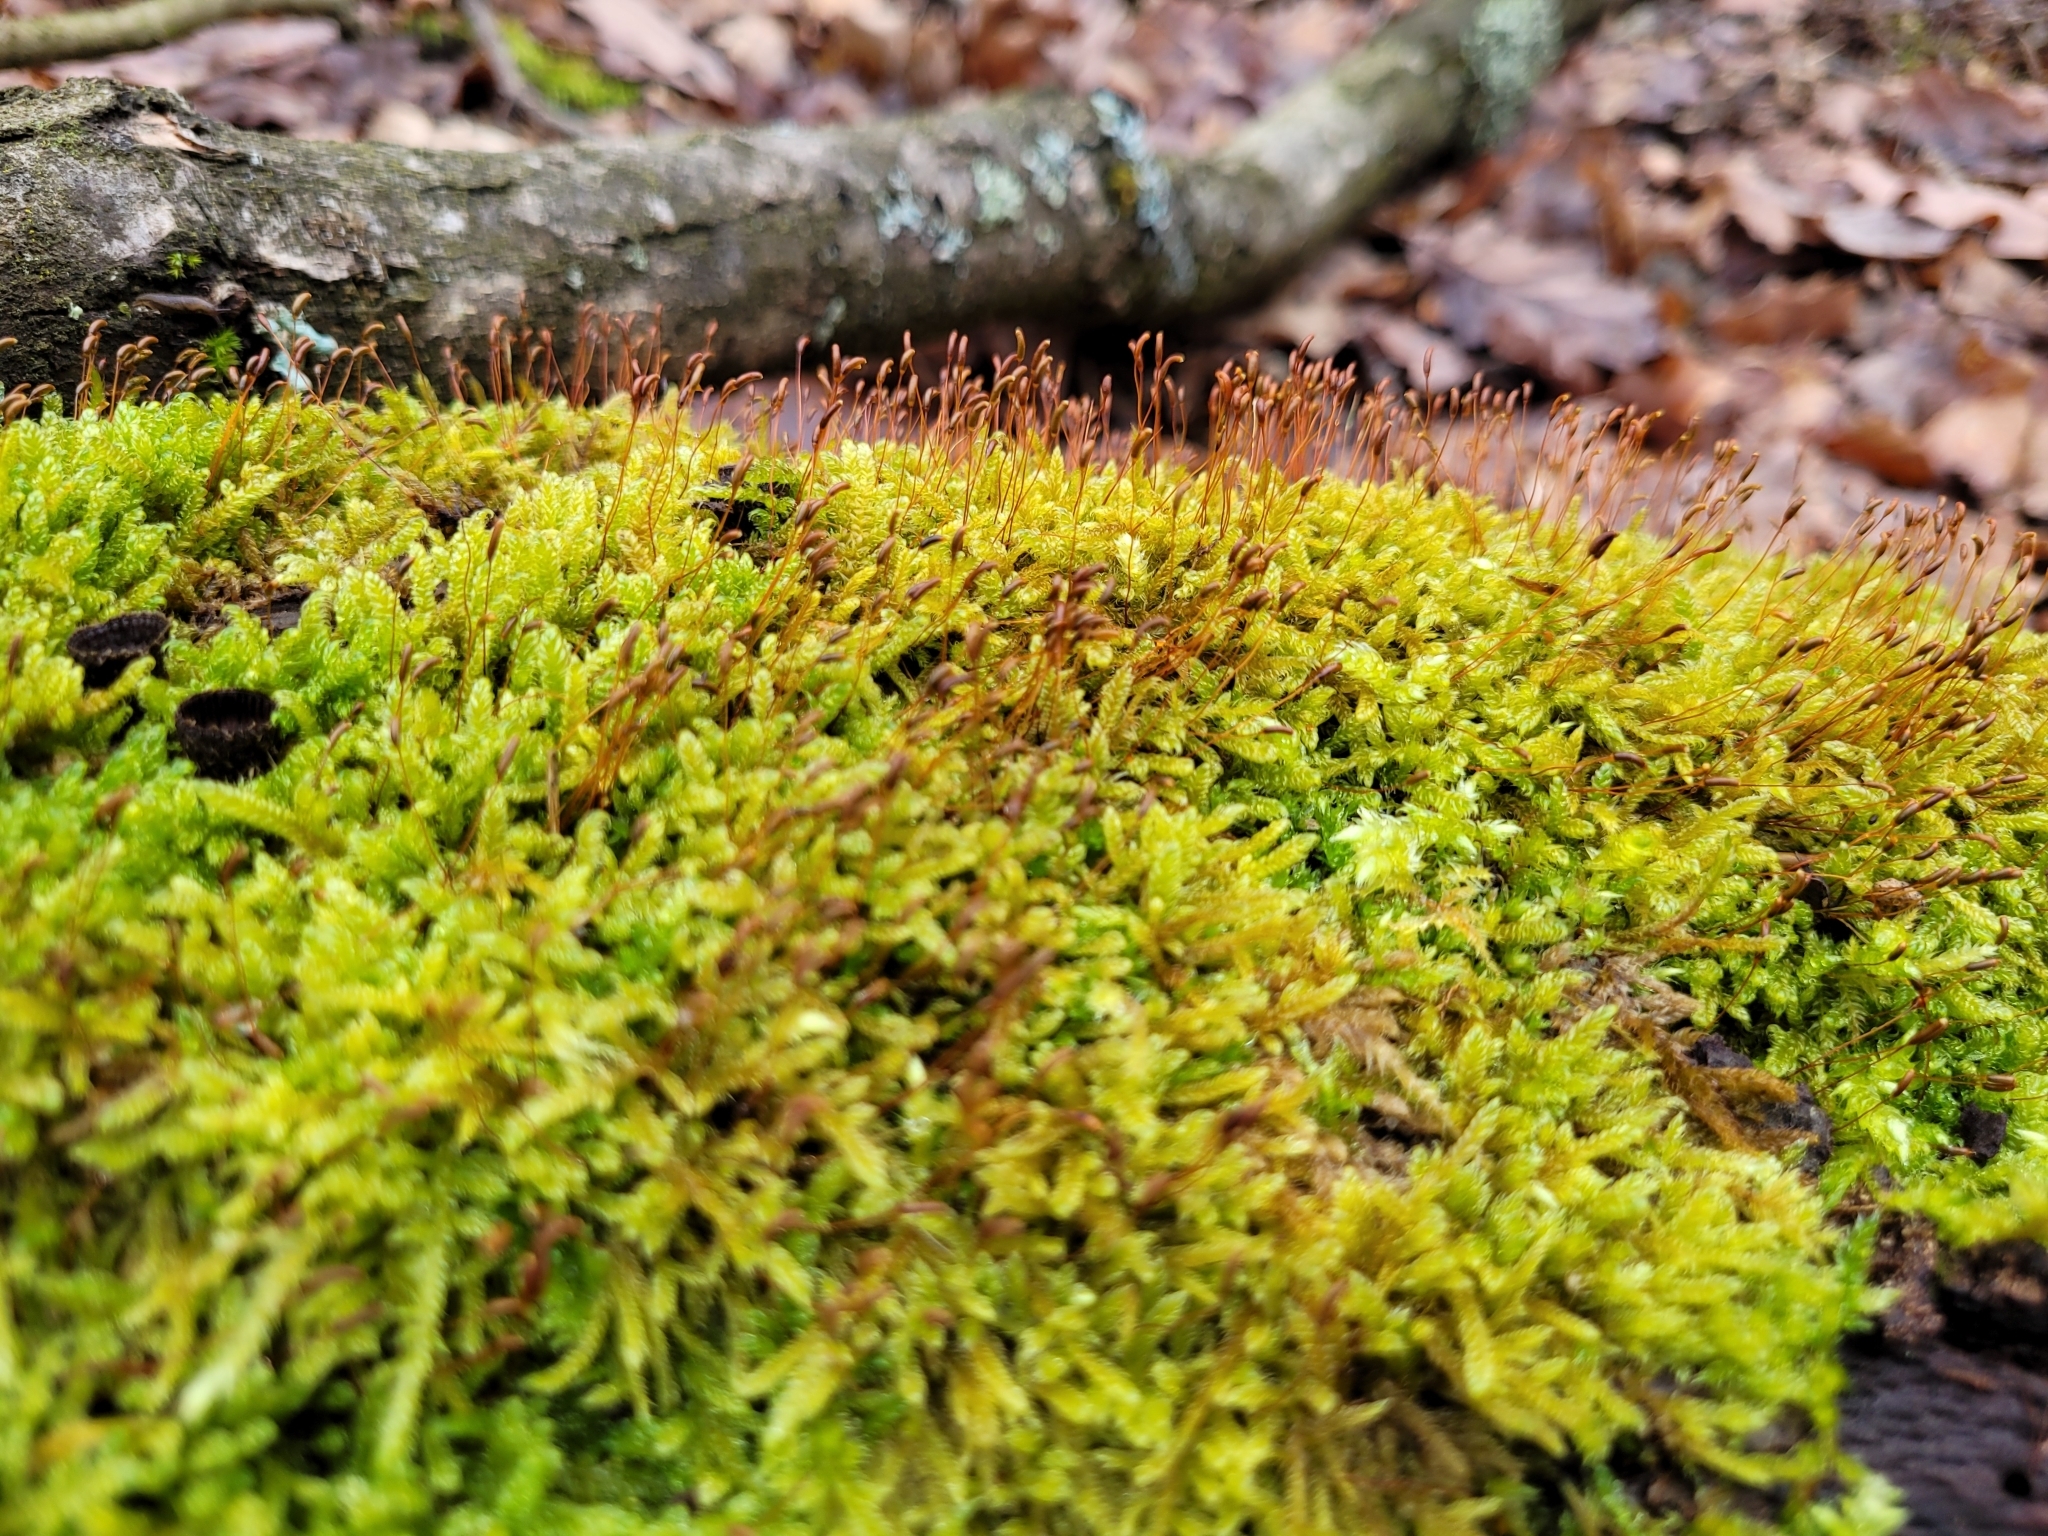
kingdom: Plantae
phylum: Bryophyta
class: Bryopsida
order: Hypnales
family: Hypnaceae
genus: Hypnum
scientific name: Hypnum cupressiforme
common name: Cypress-leaved plait-moss
